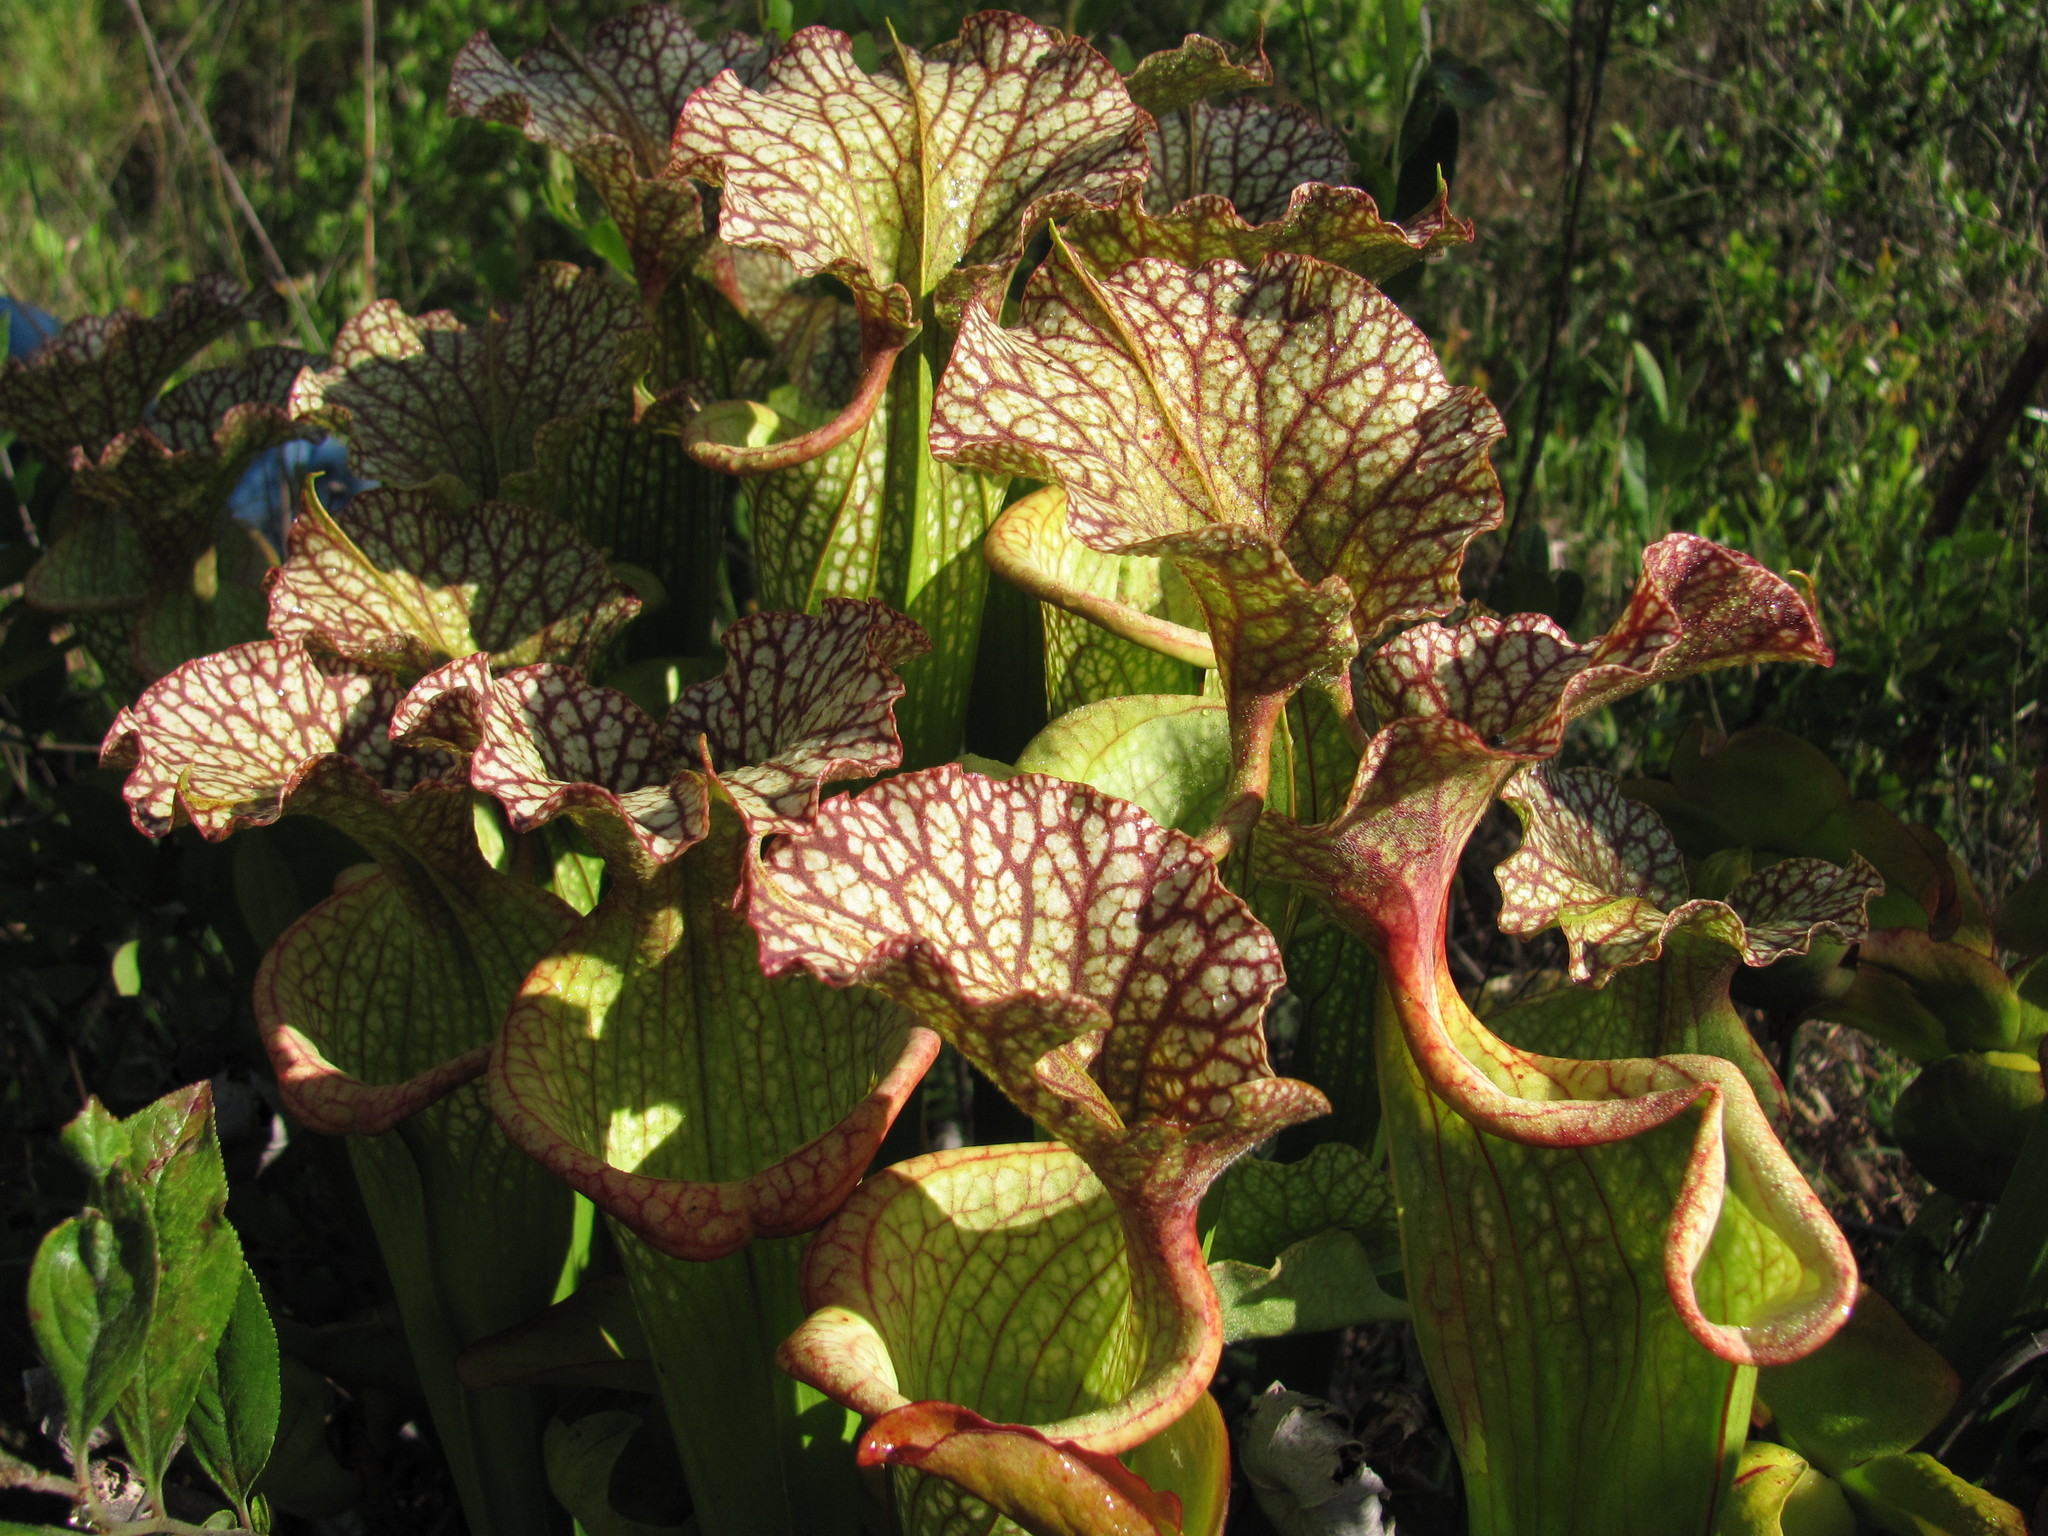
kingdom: Plantae
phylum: Tracheophyta
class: Magnoliopsida
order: Ericales
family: Sarraceniaceae
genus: Sarracenia
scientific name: Sarracenia moorei
